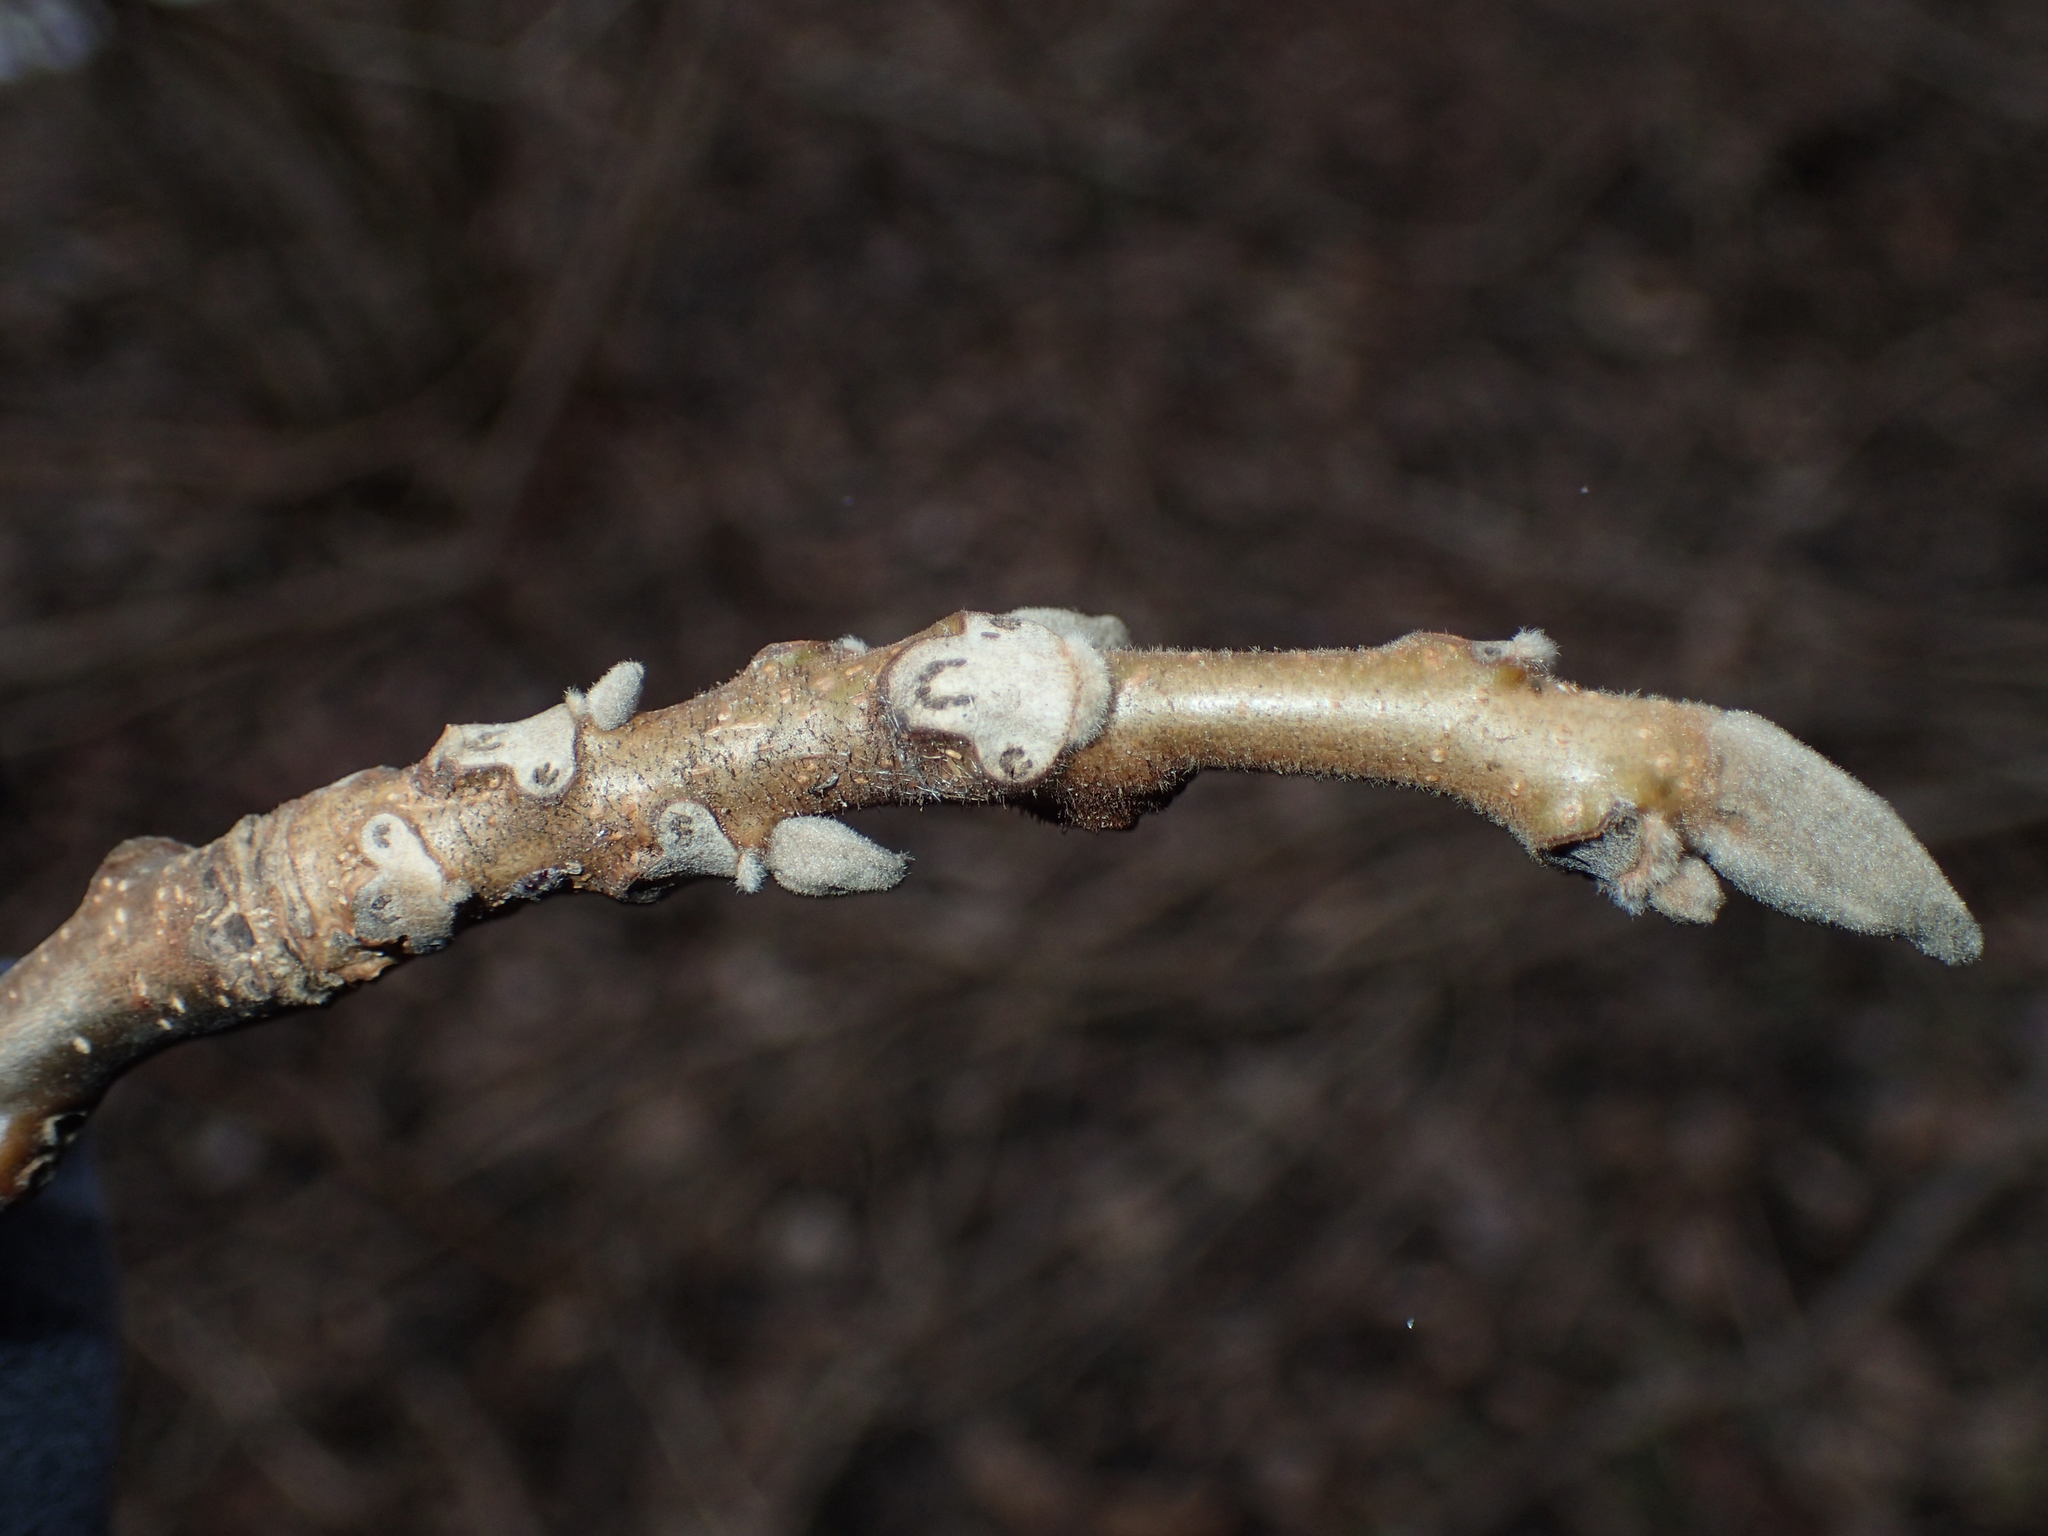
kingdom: Plantae
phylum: Tracheophyta
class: Magnoliopsida
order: Fagales
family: Juglandaceae
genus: Juglans
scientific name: Juglans cinerea
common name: Butternut
